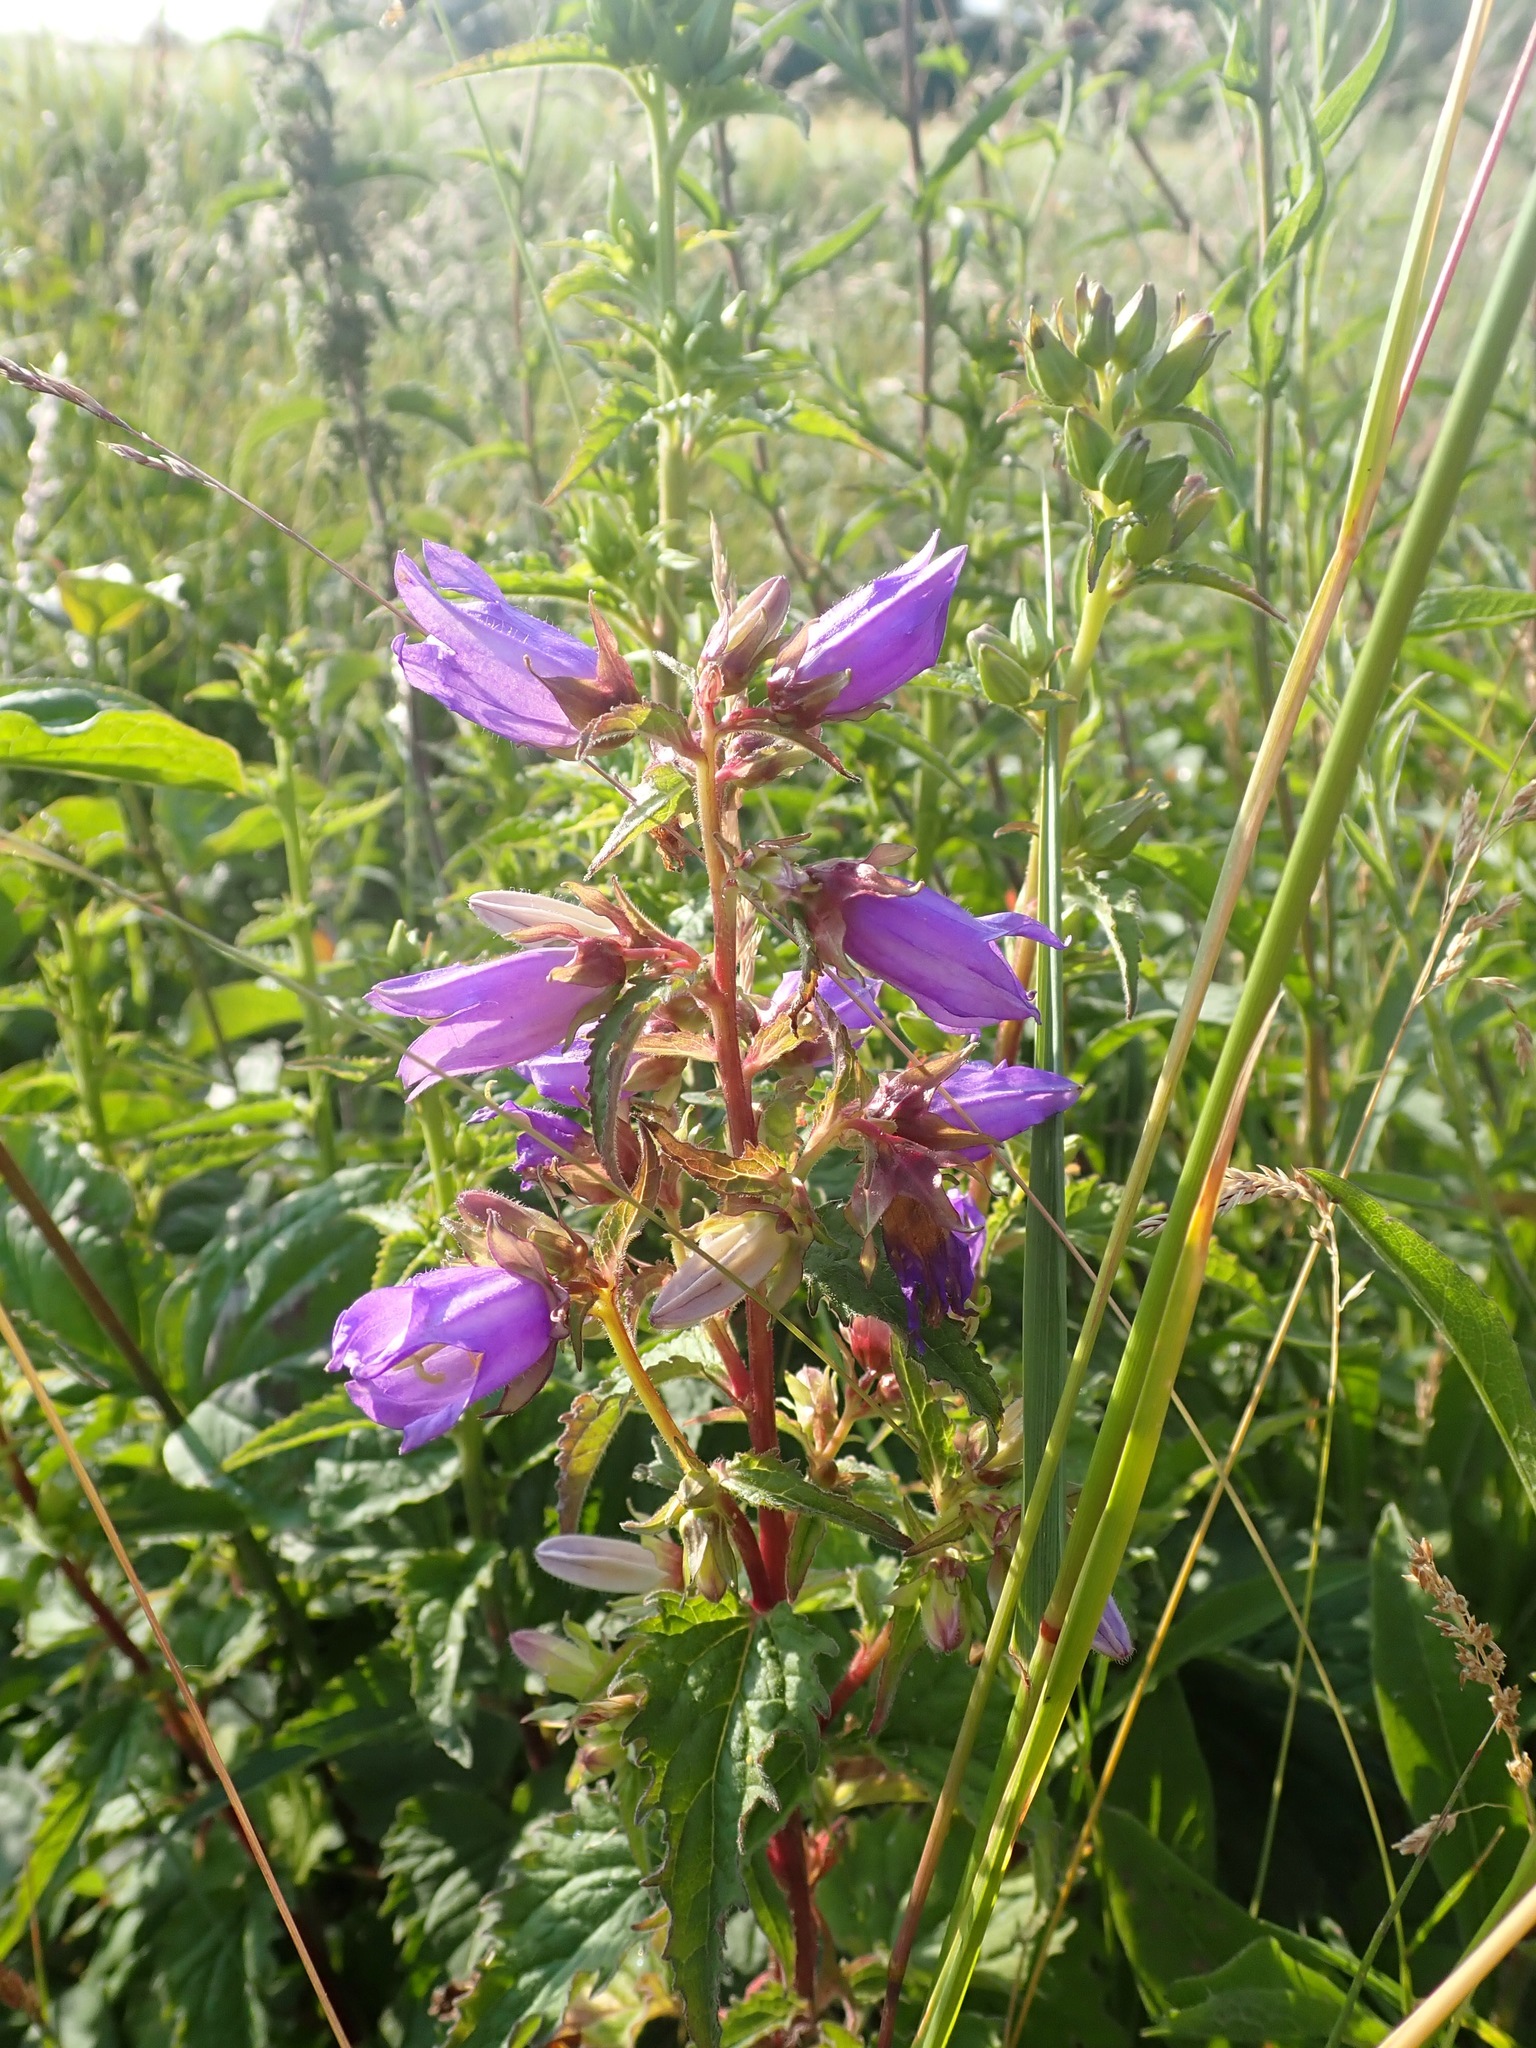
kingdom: Plantae
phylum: Tracheophyta
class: Magnoliopsida
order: Asterales
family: Campanulaceae
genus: Campanula
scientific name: Campanula trachelium
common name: Nettle-leaved bellflower
